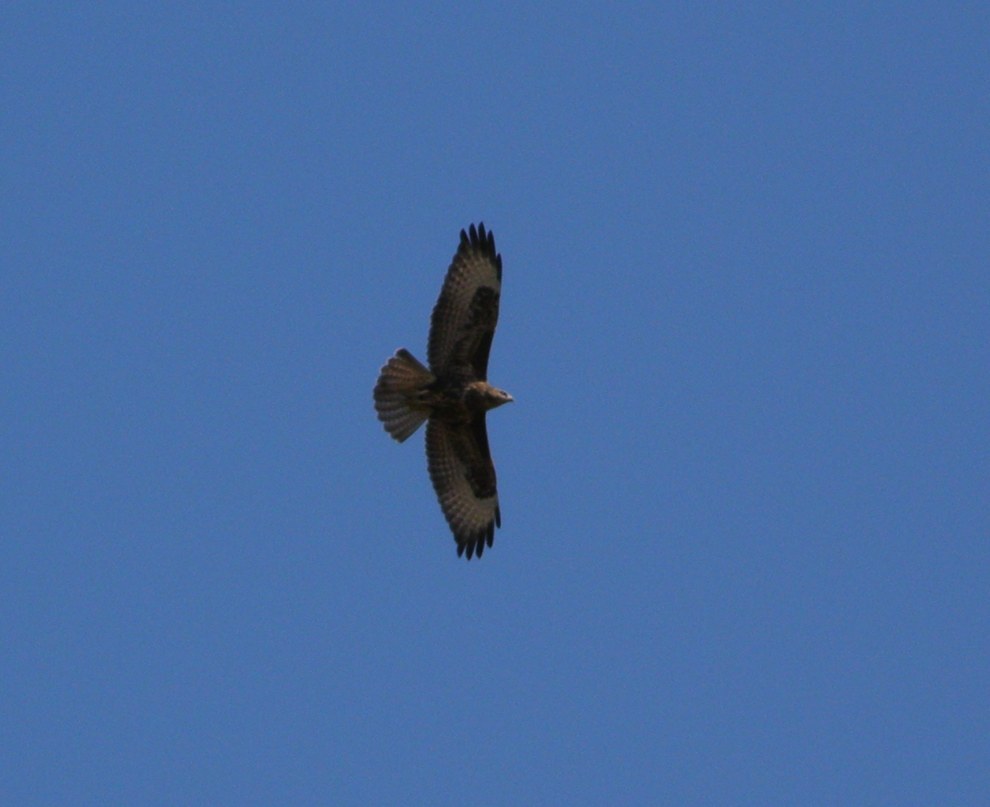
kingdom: Animalia
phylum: Chordata
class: Aves
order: Accipitriformes
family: Accipitridae
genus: Buteo
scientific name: Buteo buteo
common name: Common buzzard
